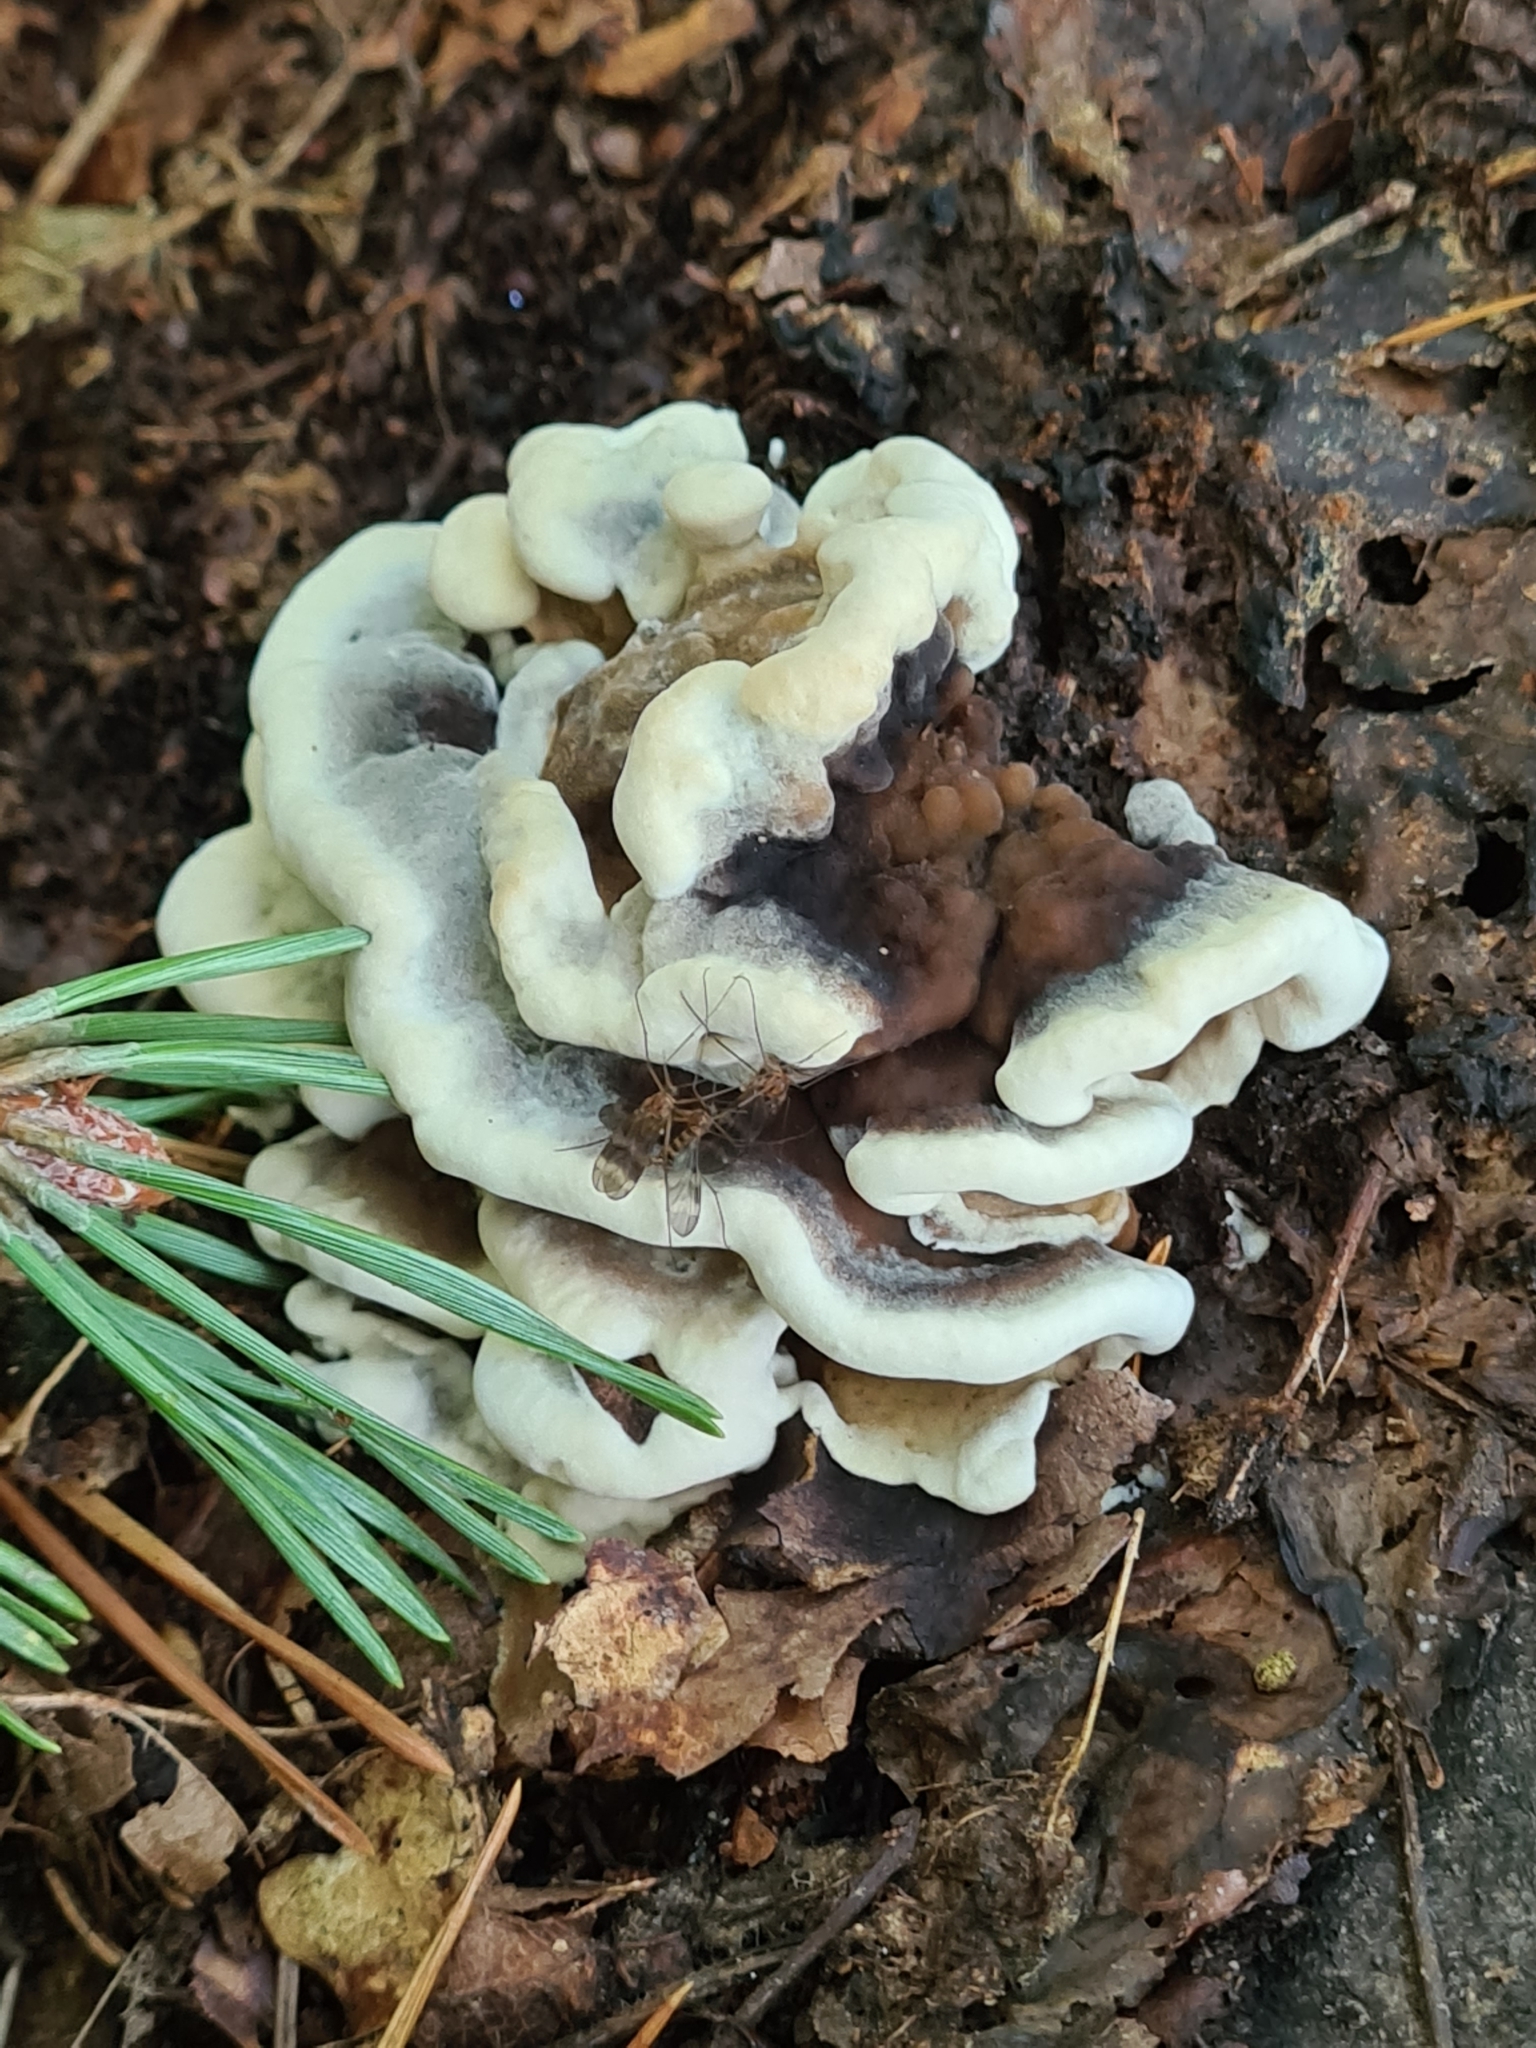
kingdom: Fungi
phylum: Basidiomycota
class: Agaricomycetes
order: Polyporales
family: Phanerochaetaceae
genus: Bjerkandera
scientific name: Bjerkandera adusta
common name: Smoky bracket
